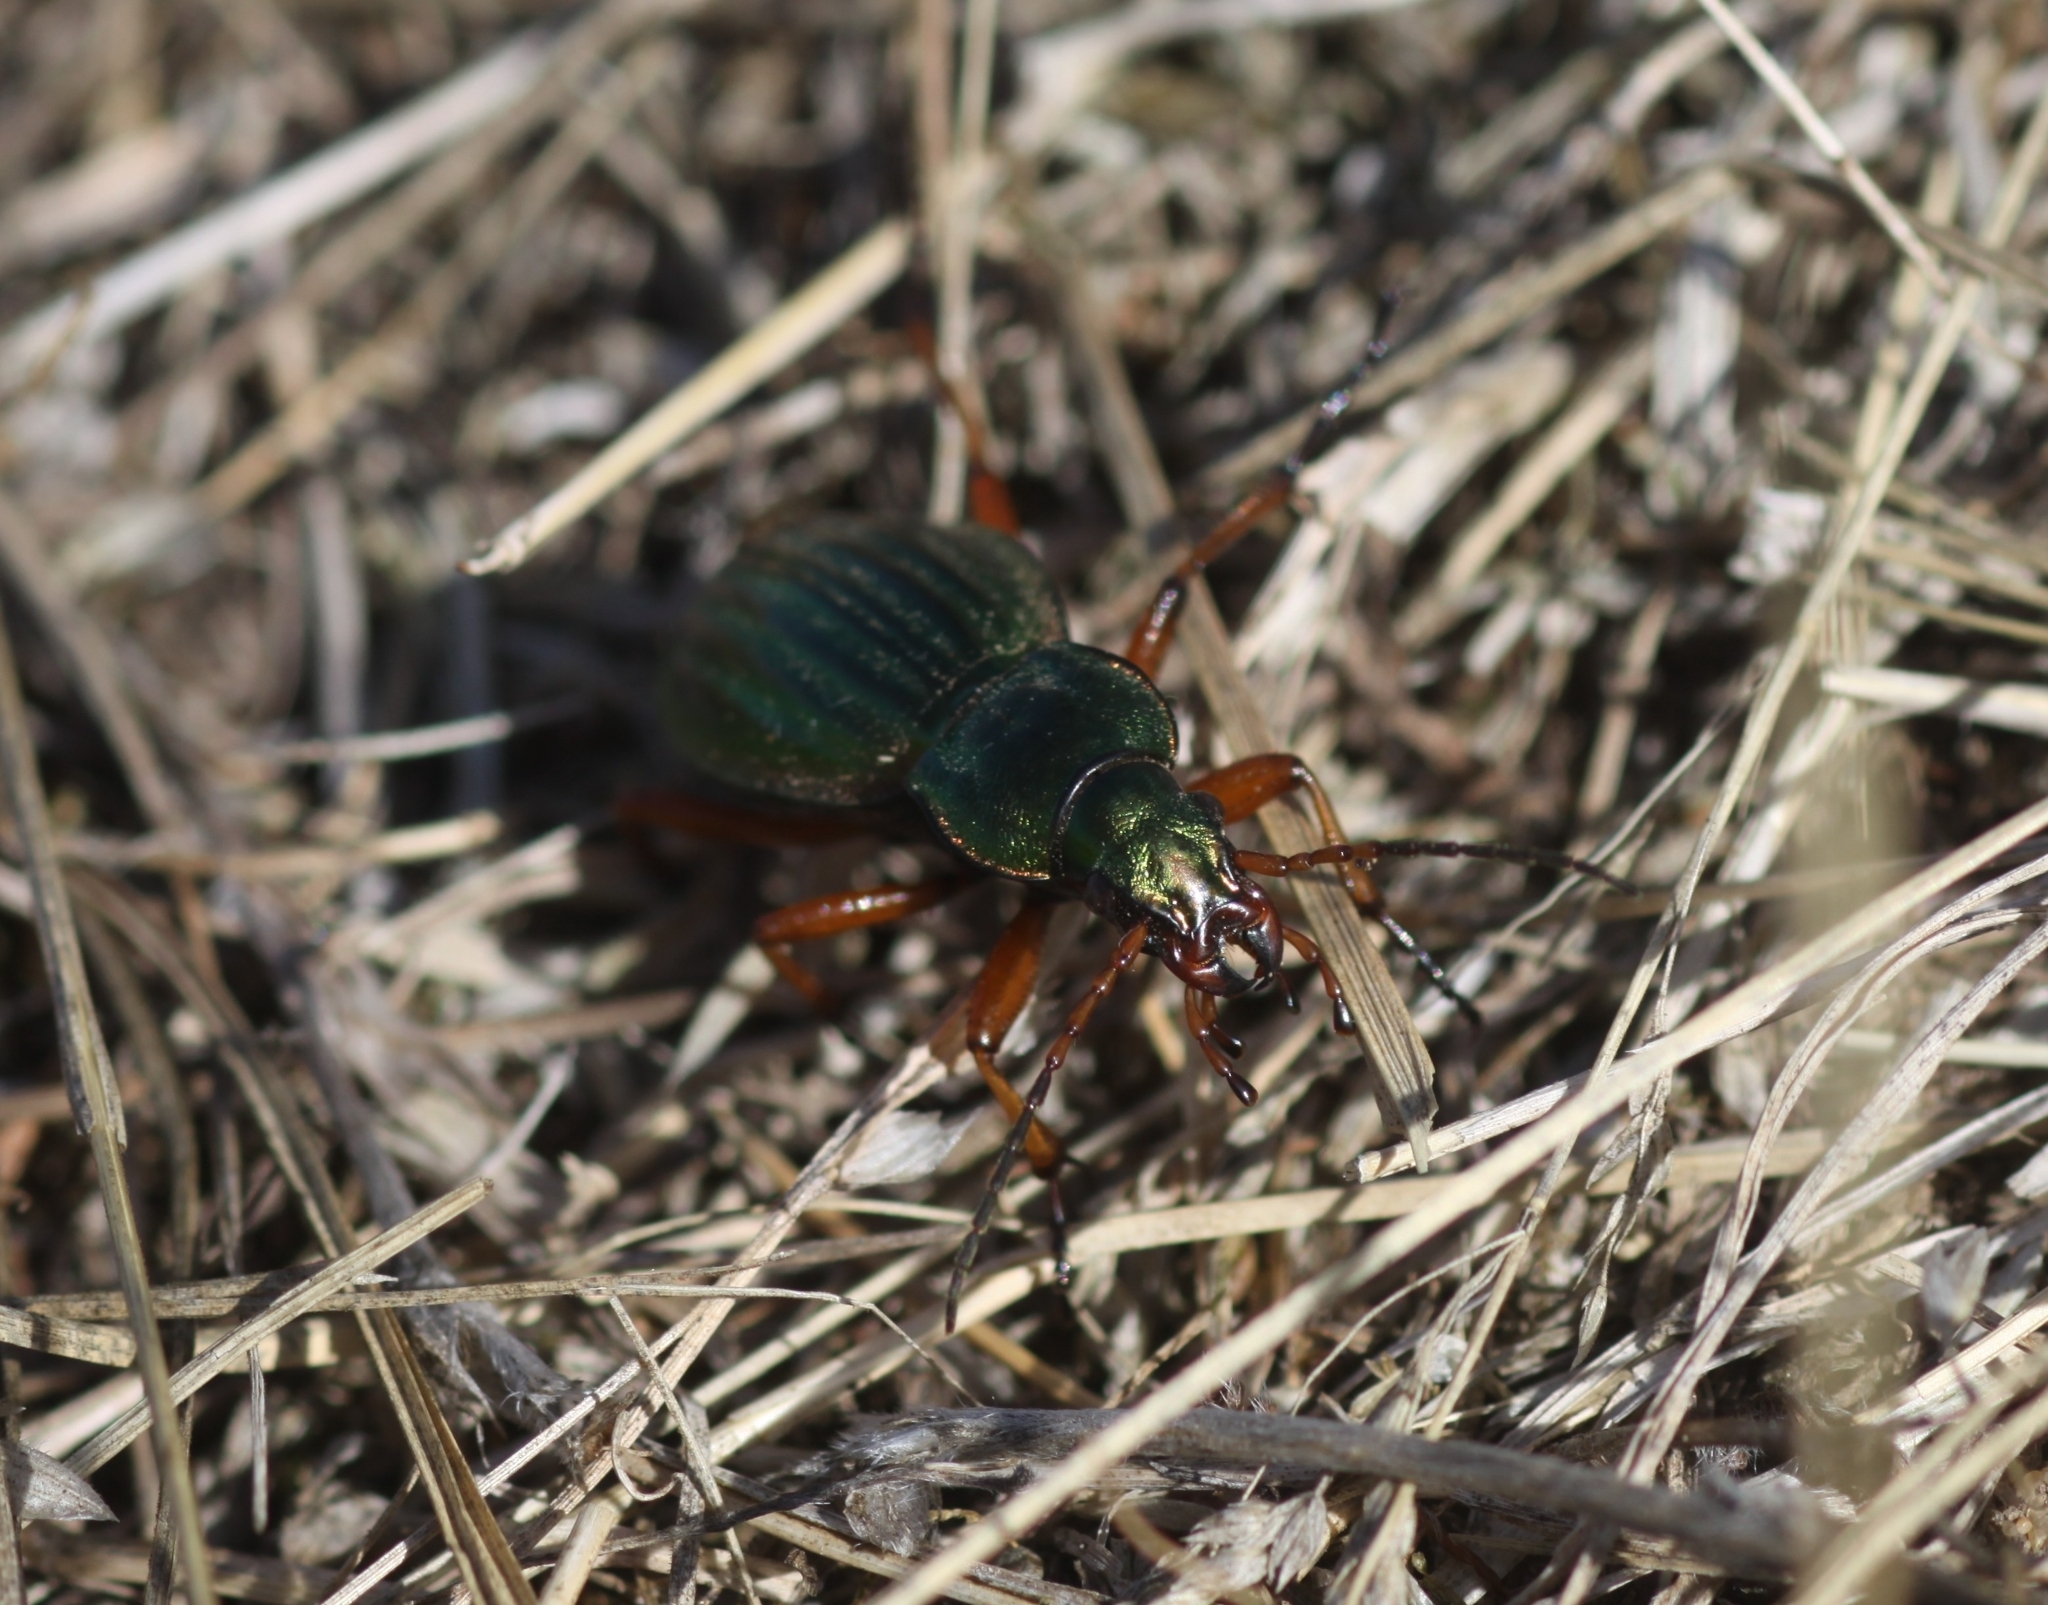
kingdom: Animalia
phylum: Arthropoda
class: Insecta
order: Coleoptera
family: Carabidae
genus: Carabus
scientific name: Carabus auratus
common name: Golden ground beetle
